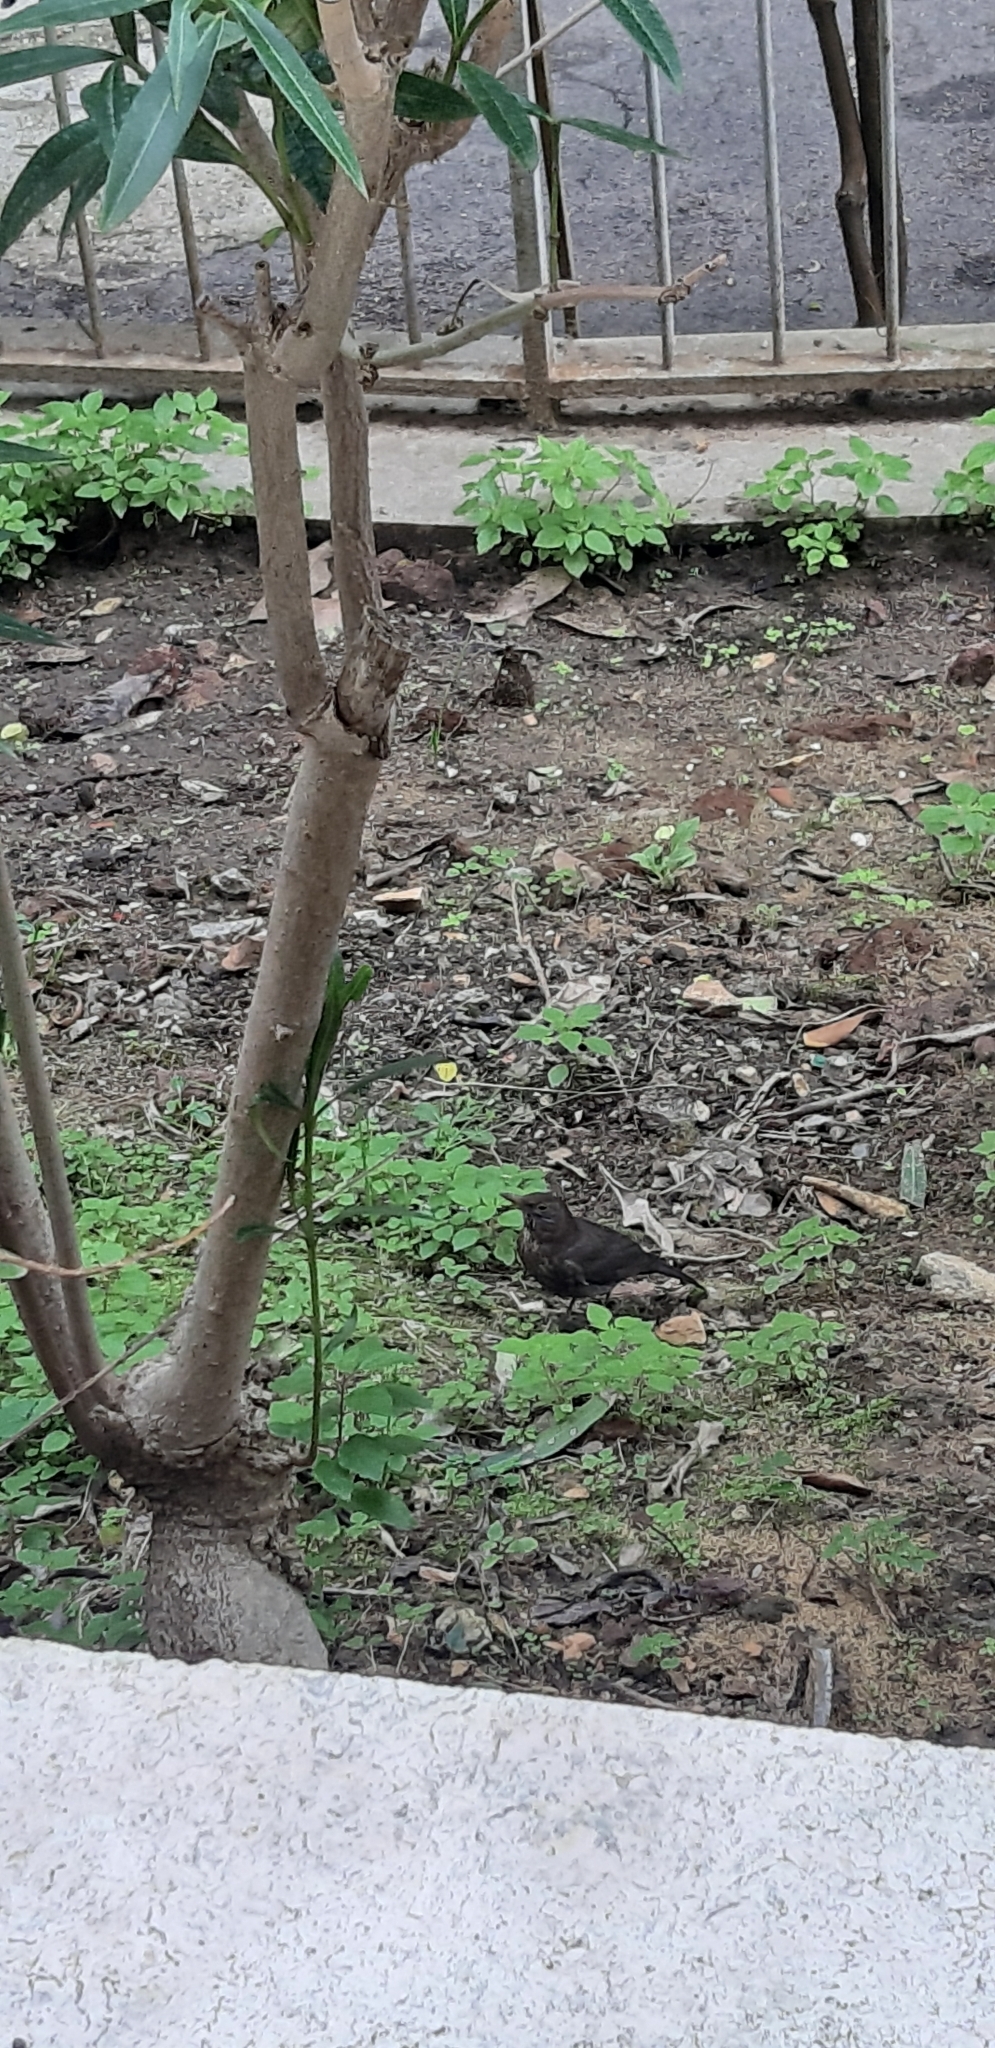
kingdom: Animalia
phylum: Chordata
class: Aves
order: Passeriformes
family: Turdidae
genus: Turdus
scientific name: Turdus merula
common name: Common blackbird
